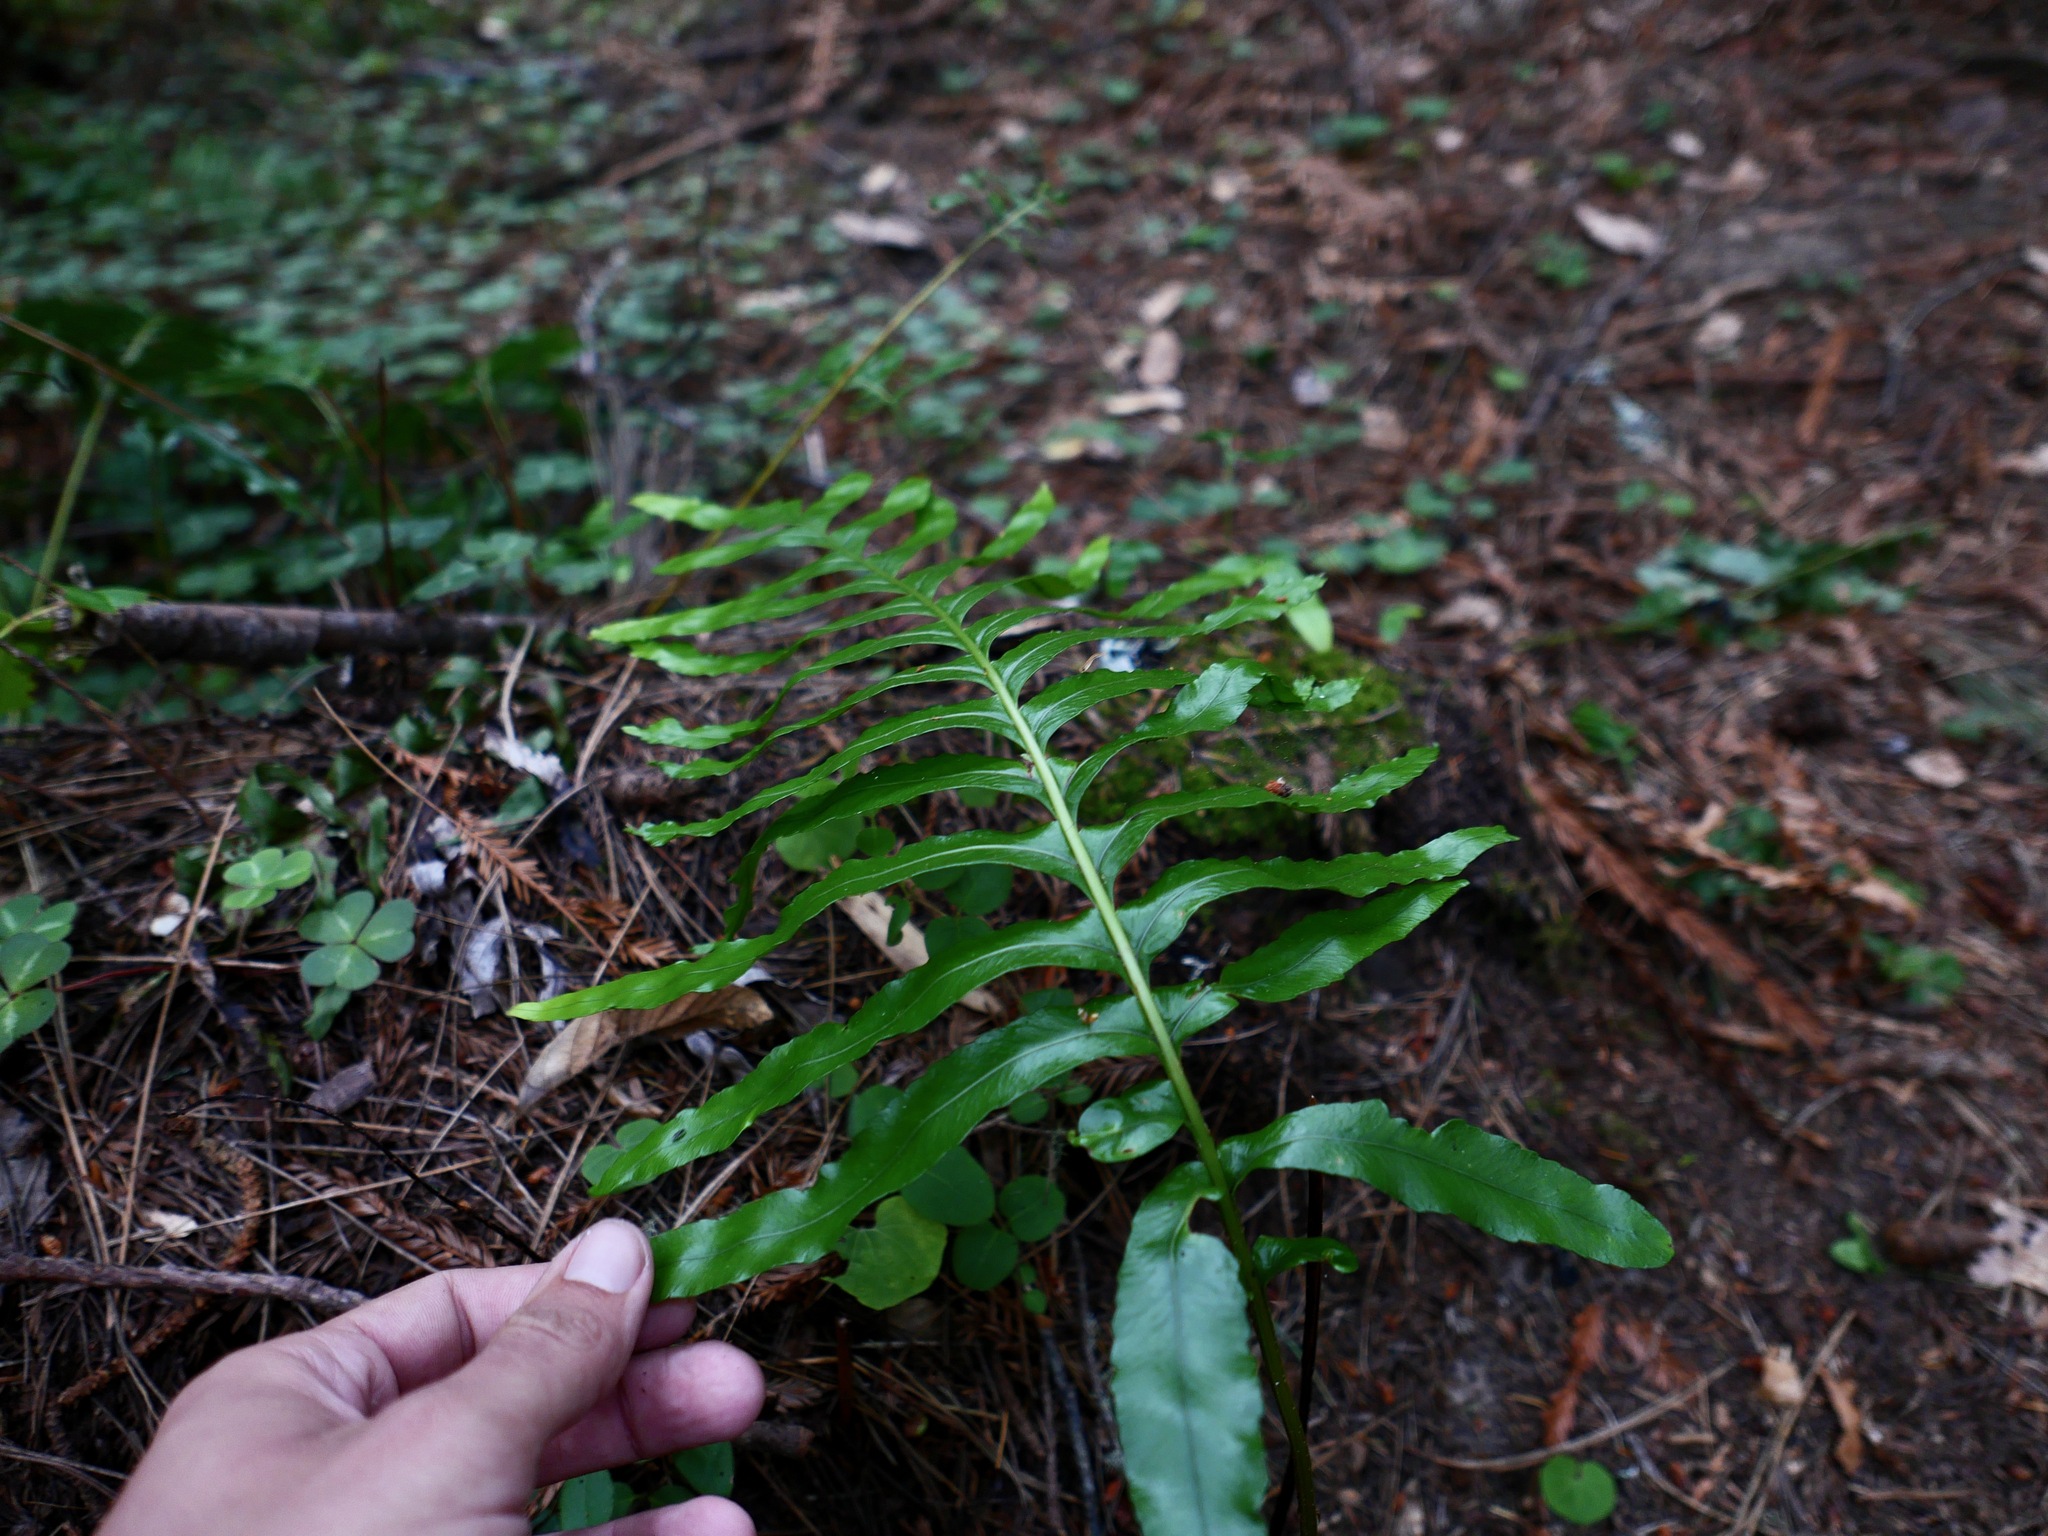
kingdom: Plantae
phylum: Tracheophyta
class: Polypodiopsida
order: Polypodiales
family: Polypodiaceae
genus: Polypodium
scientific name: Polypodium scouleri
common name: Scouler's polypody
